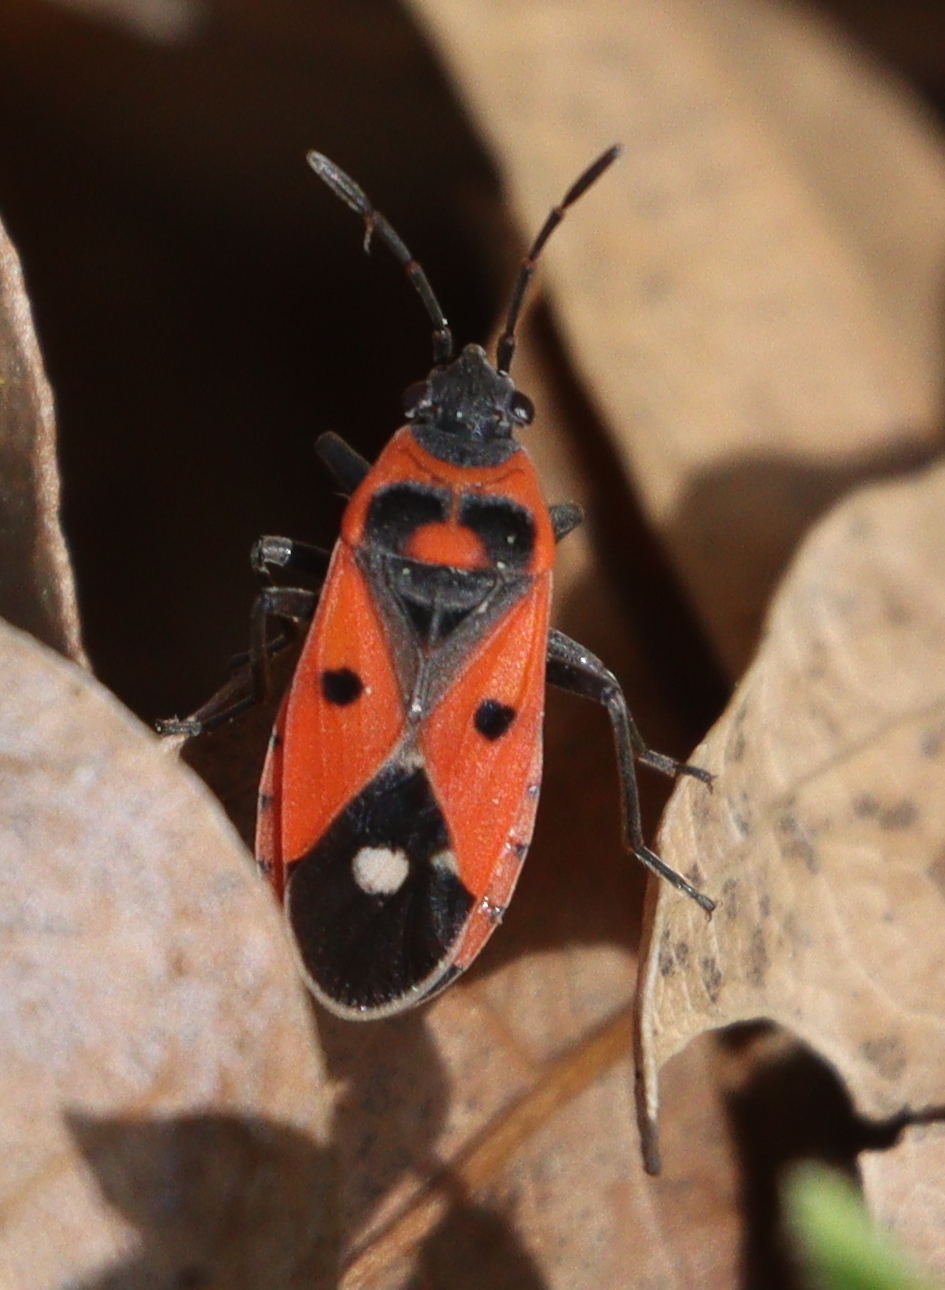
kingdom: Animalia
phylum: Arthropoda
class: Insecta
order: Hemiptera
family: Lygaeidae
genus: Melanocoryphus
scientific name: Melanocoryphus albomaculatus
